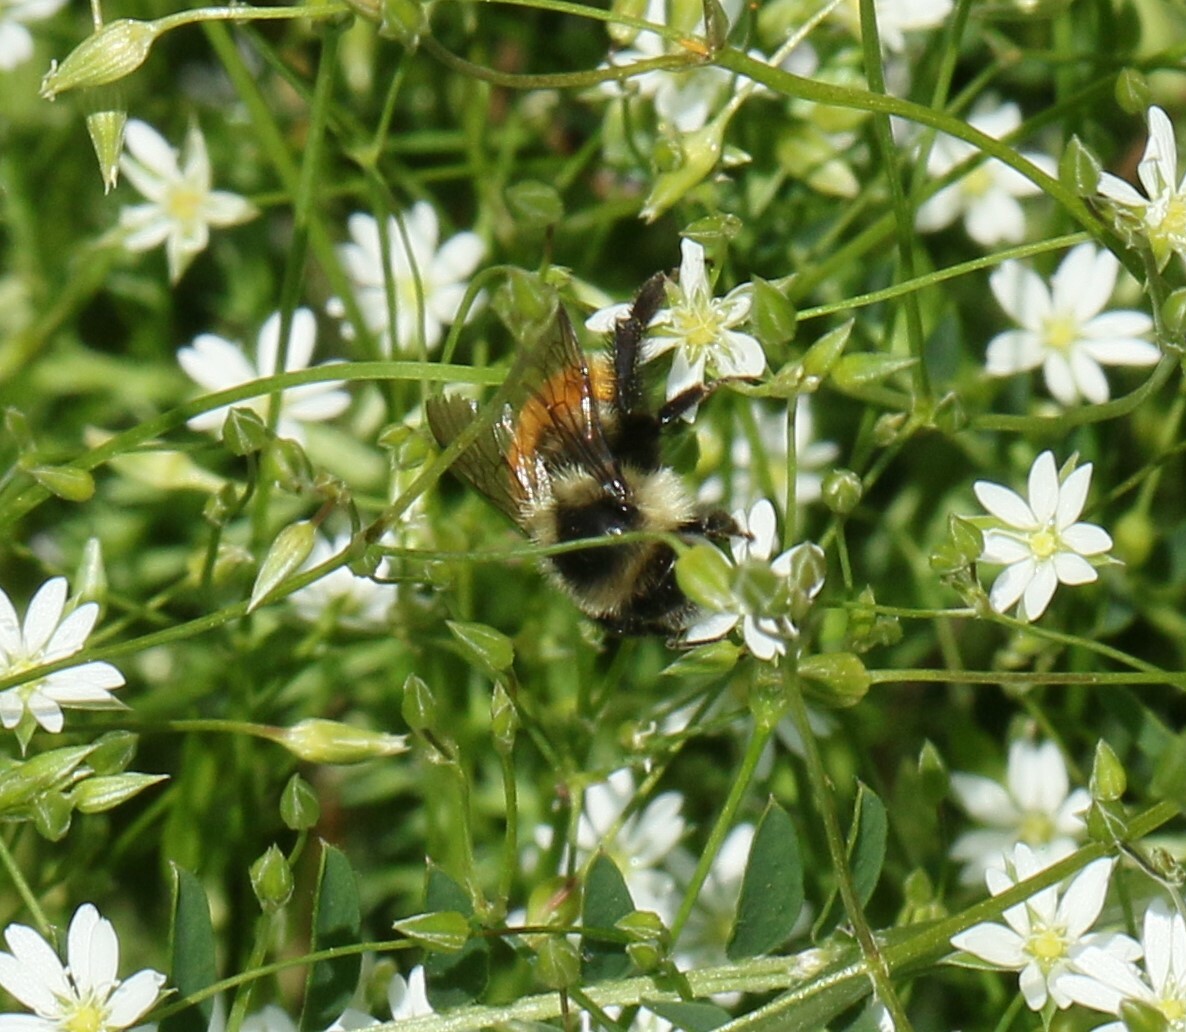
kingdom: Animalia
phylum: Arthropoda
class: Insecta
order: Hymenoptera
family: Apidae
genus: Bombus
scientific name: Bombus ternarius
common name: Tri-colored bumble bee
